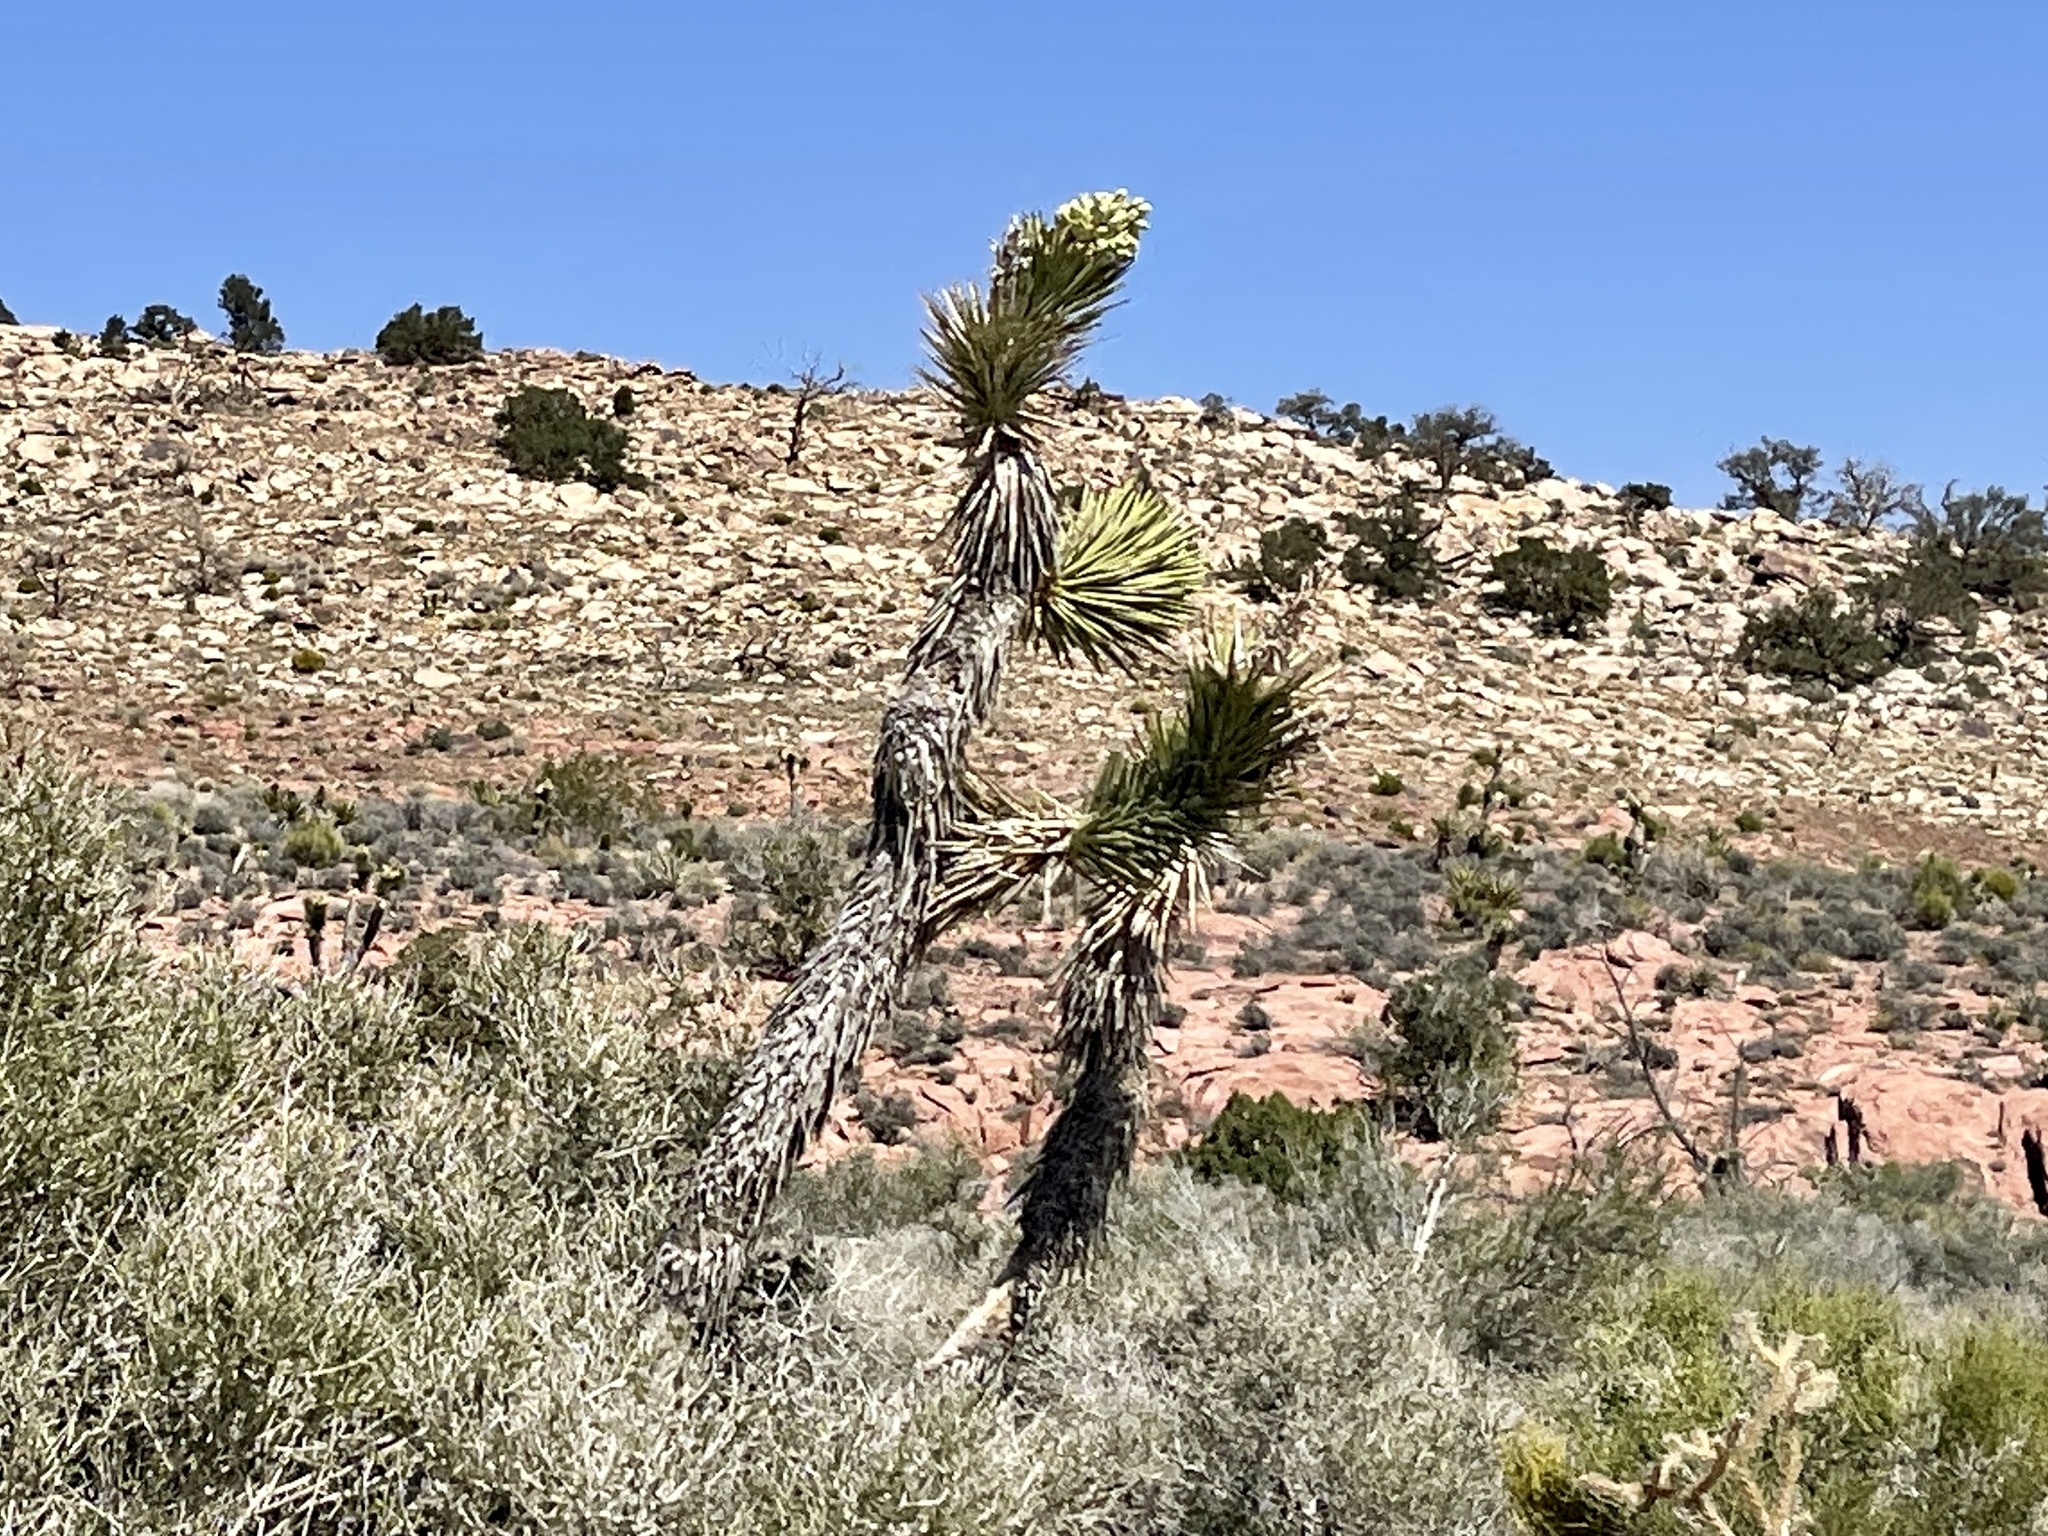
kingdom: Plantae
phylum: Tracheophyta
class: Liliopsida
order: Asparagales
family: Asparagaceae
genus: Yucca
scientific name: Yucca brevifolia
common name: Joshua tree
